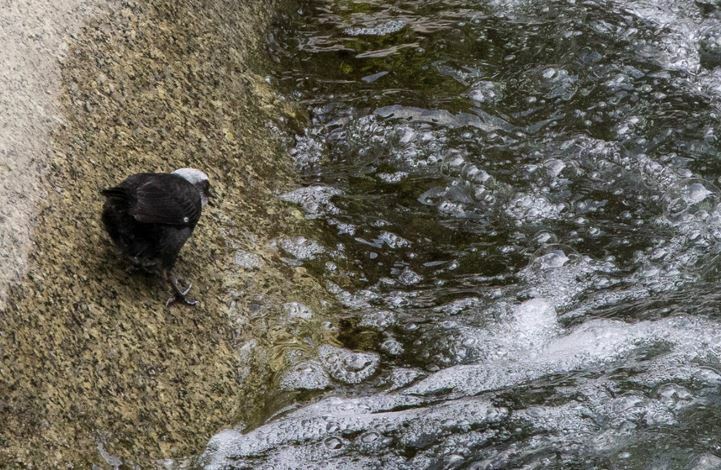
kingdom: Animalia
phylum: Chordata
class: Aves
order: Passeriformes
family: Cinclidae
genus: Cinclus
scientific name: Cinclus leucocephalus
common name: White-capped dipper
